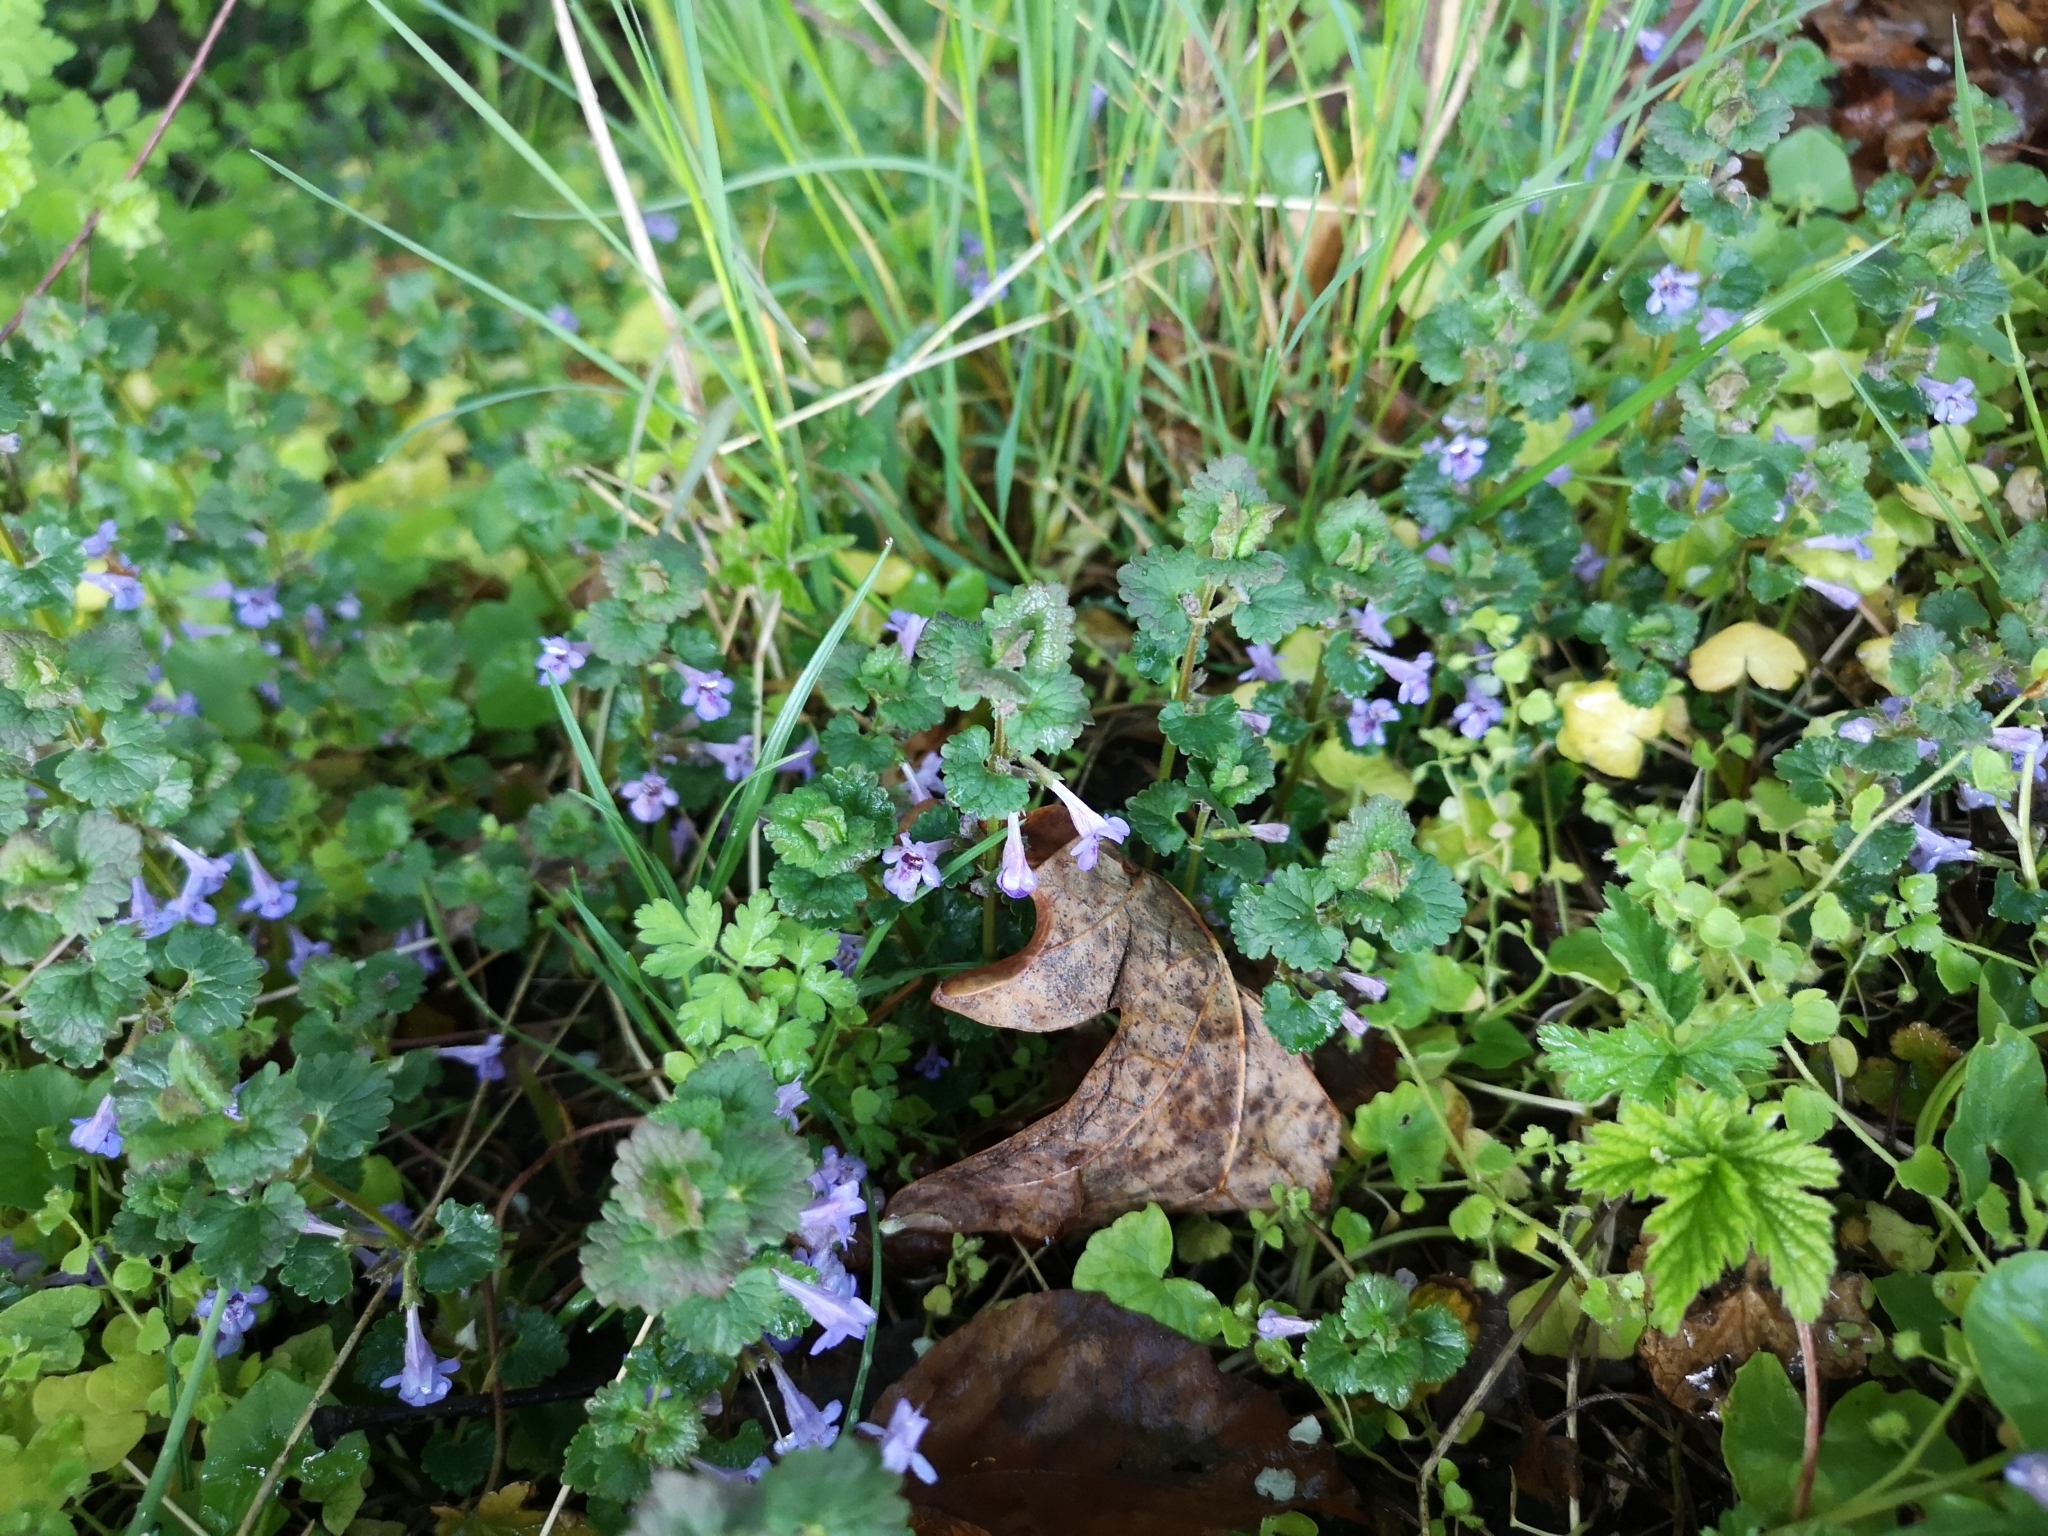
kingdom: Plantae
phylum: Tracheophyta
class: Magnoliopsida
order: Lamiales
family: Lamiaceae
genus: Glechoma
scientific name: Glechoma hederacea
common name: Ground ivy
